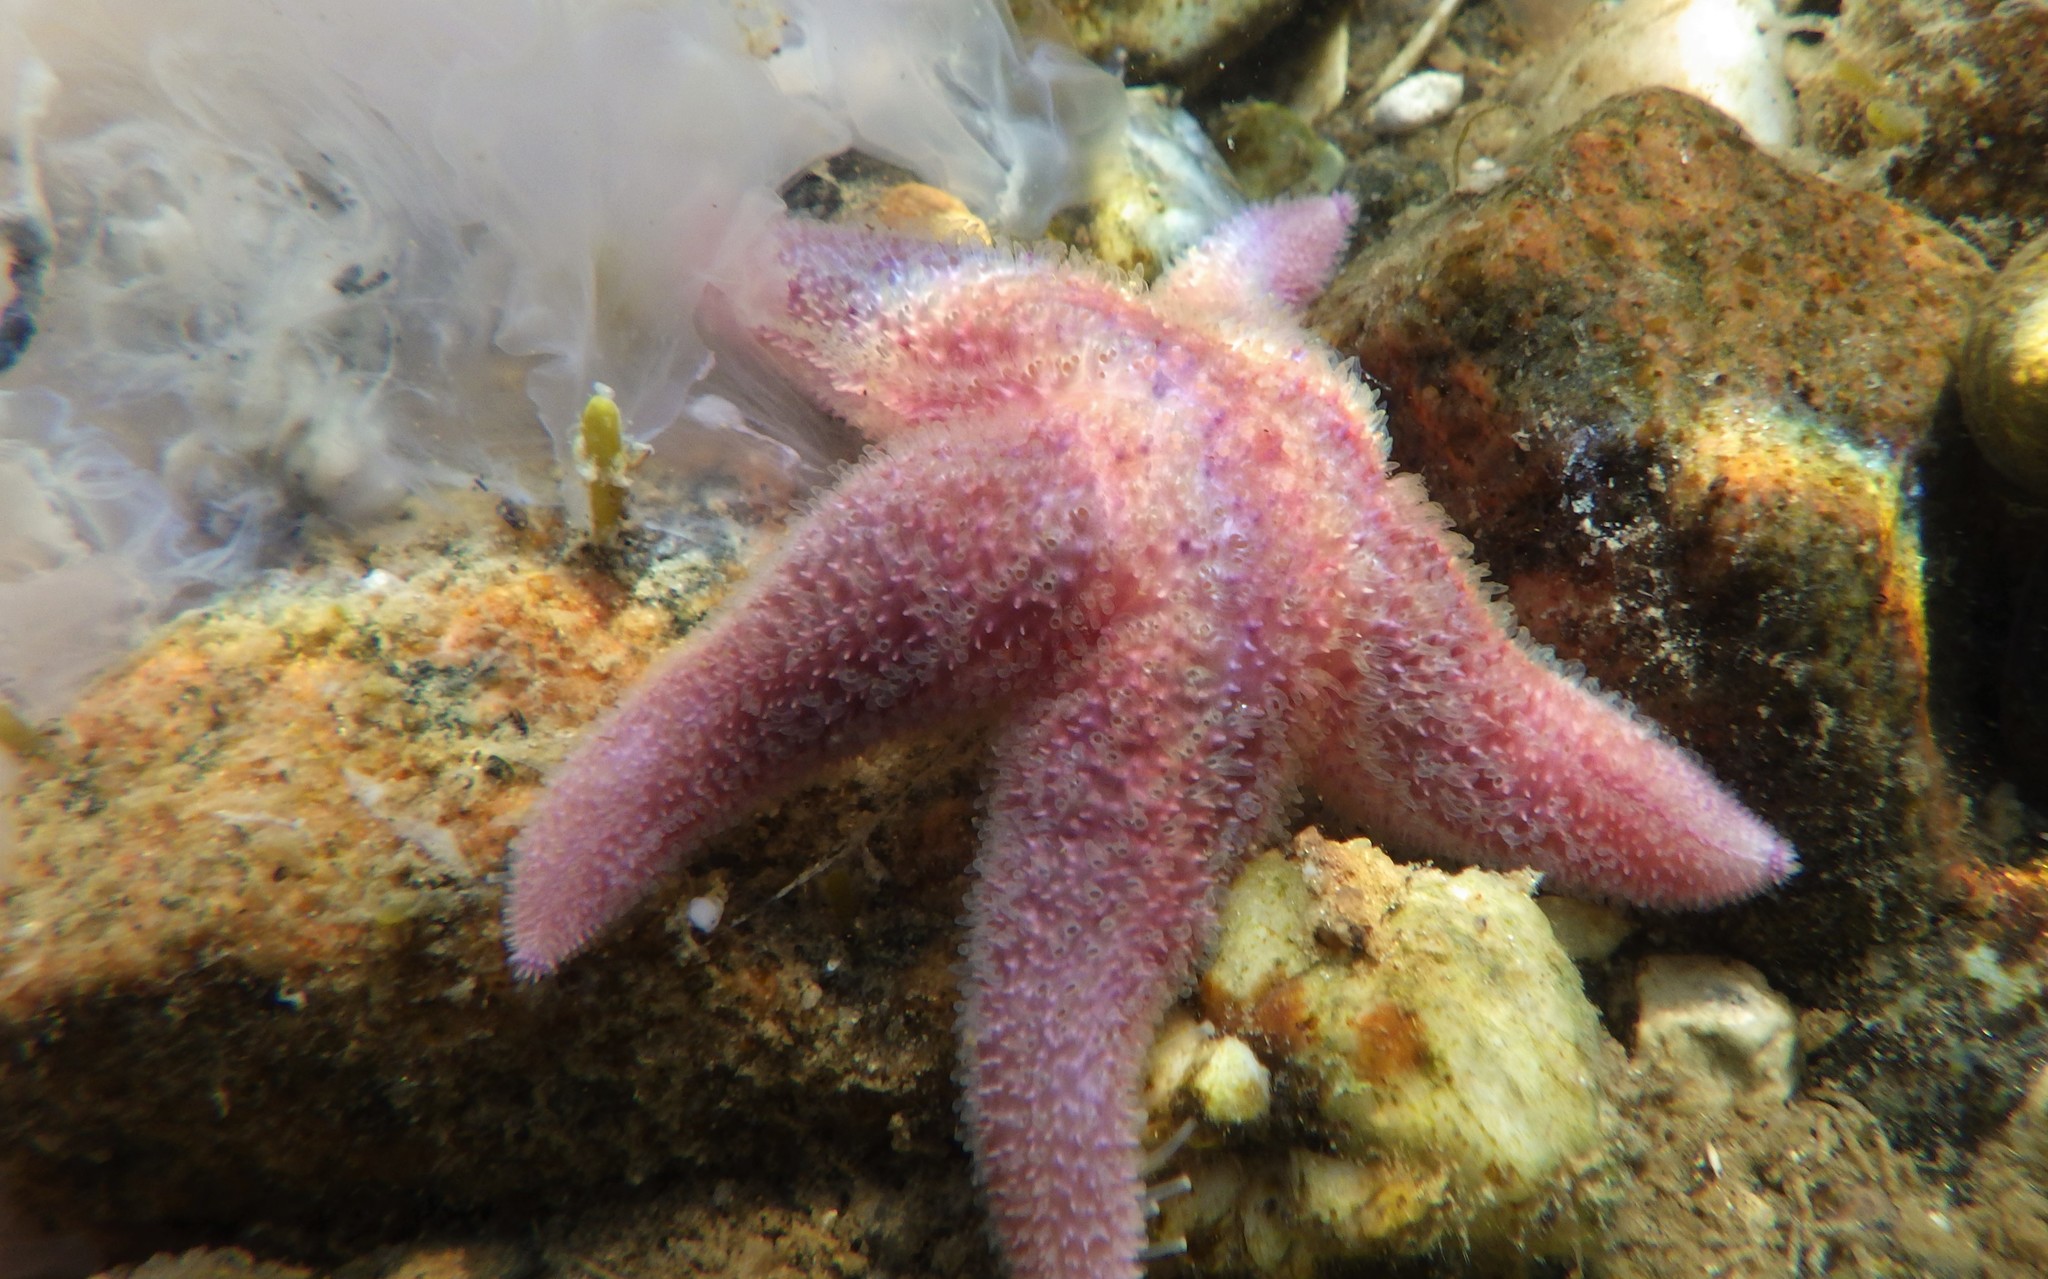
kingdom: Animalia
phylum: Echinodermata
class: Asteroidea
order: Forcipulatida
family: Asteriidae
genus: Asterias
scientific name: Asterias rubens
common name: Common starfish
